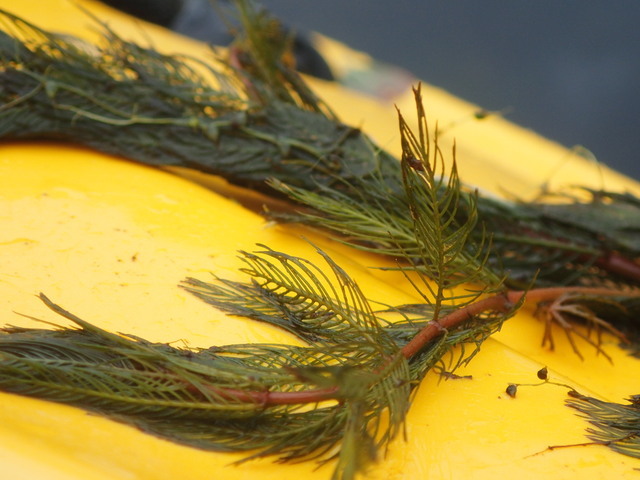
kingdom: Plantae
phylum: Tracheophyta
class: Magnoliopsida
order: Saxifragales
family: Haloragaceae
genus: Myriophyllum
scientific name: Myriophyllum spicatum
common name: Spiked water-milfoil
